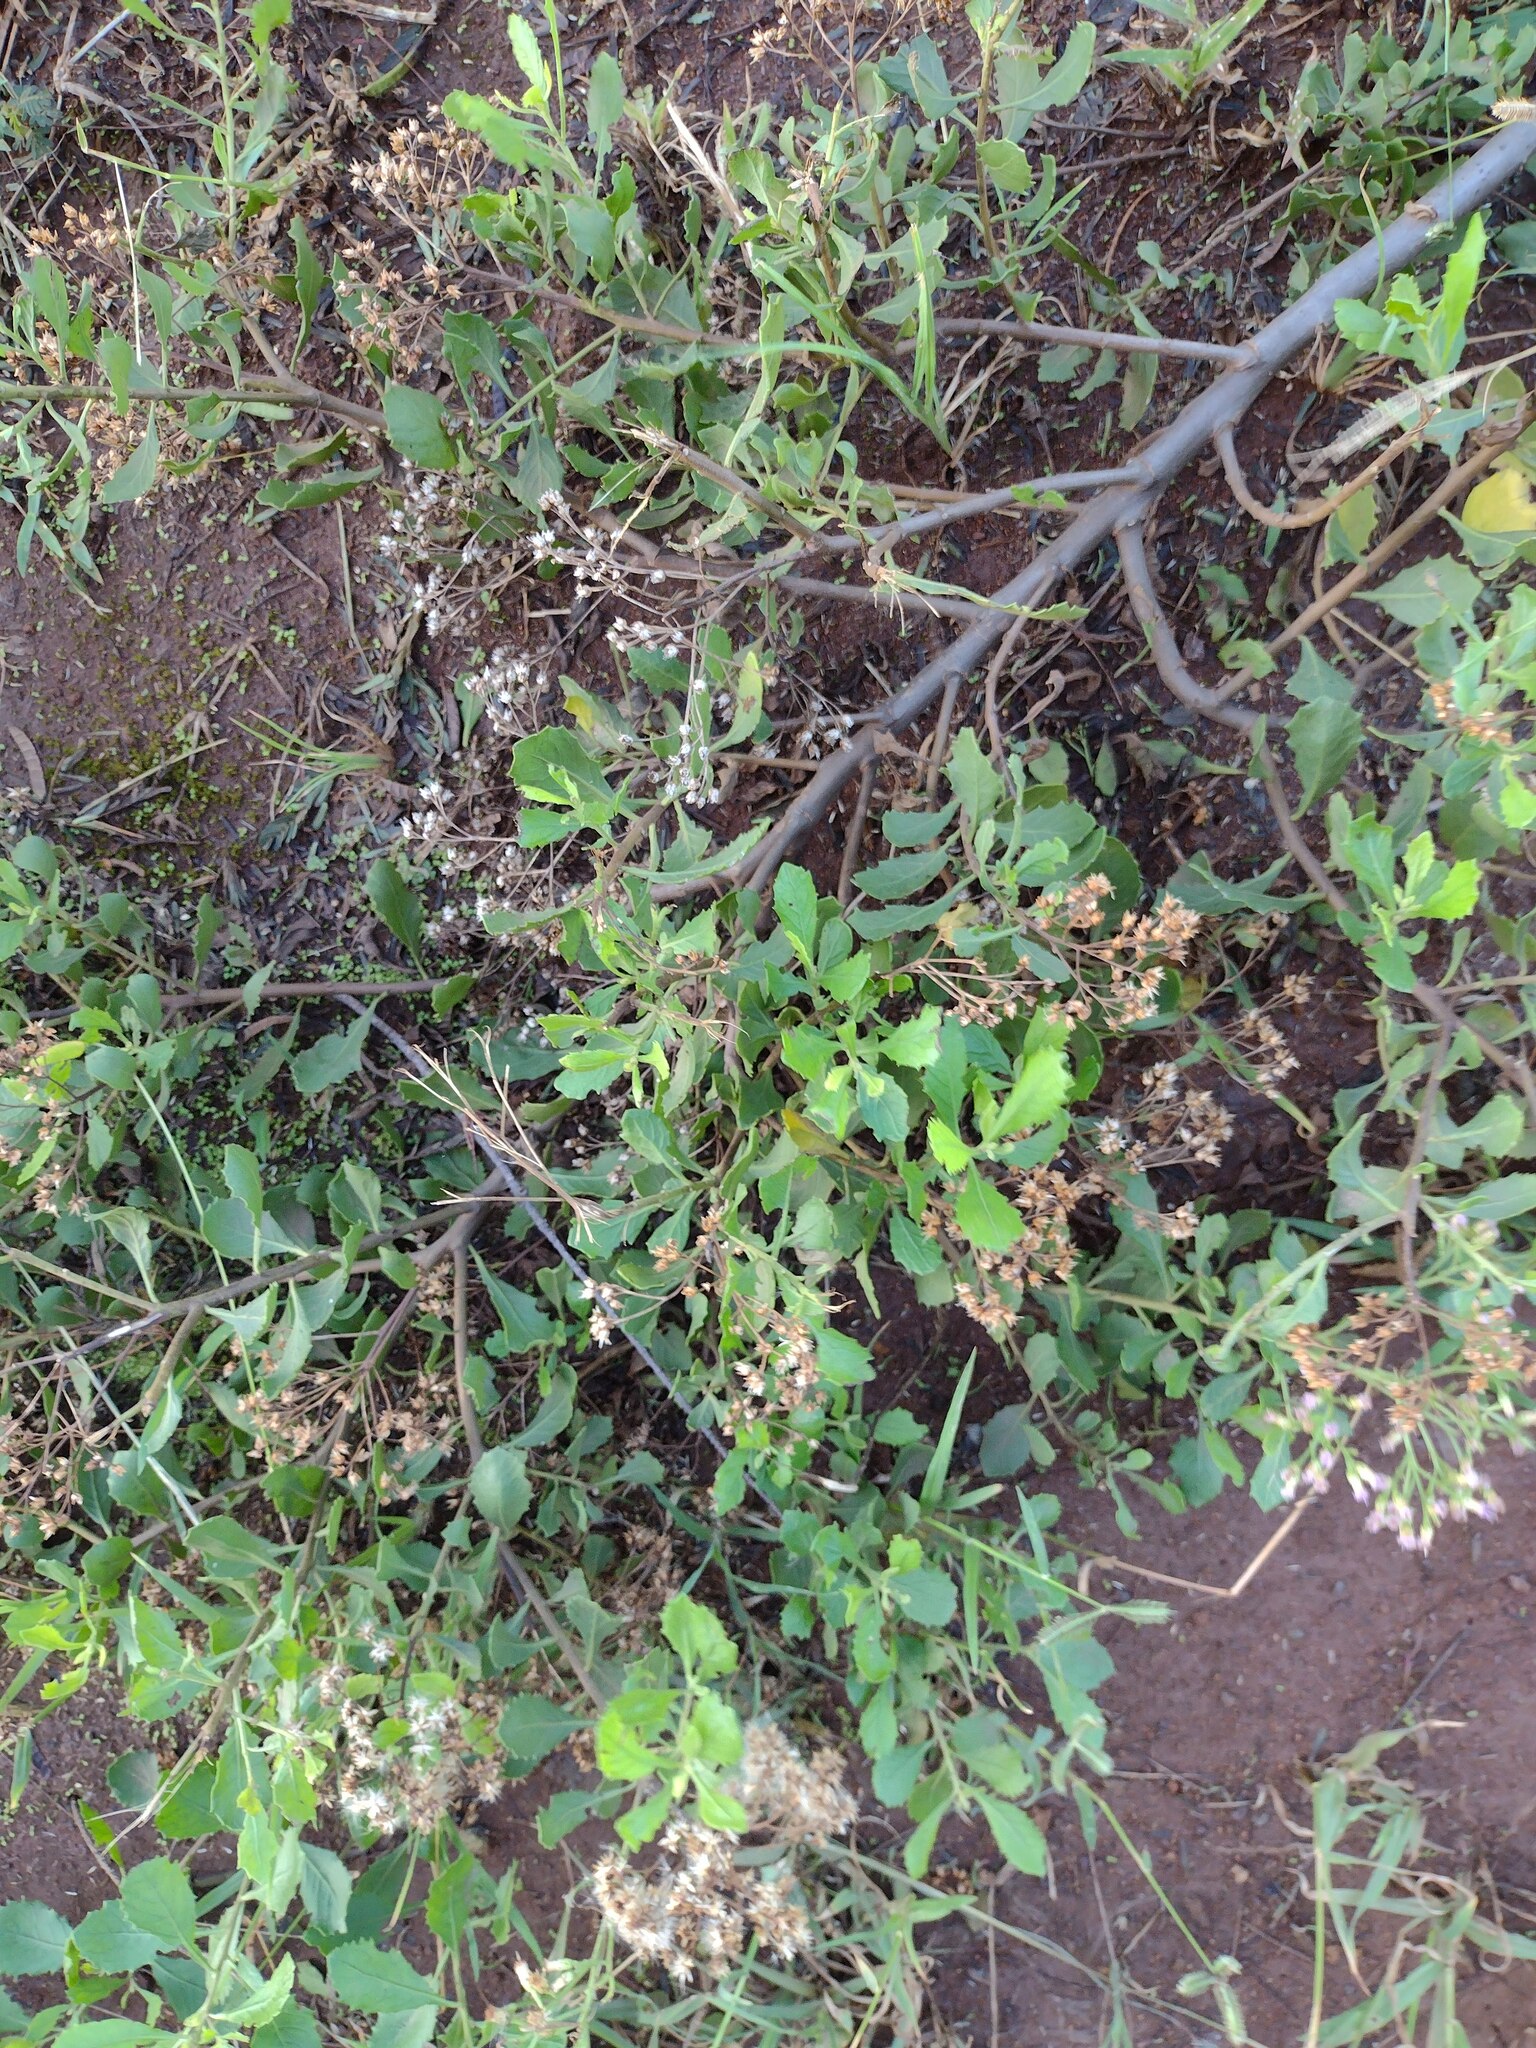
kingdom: Plantae
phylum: Tracheophyta
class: Magnoliopsida
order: Asterales
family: Asteraceae
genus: Pluchea
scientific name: Pluchea indica
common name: Indian fleabane
